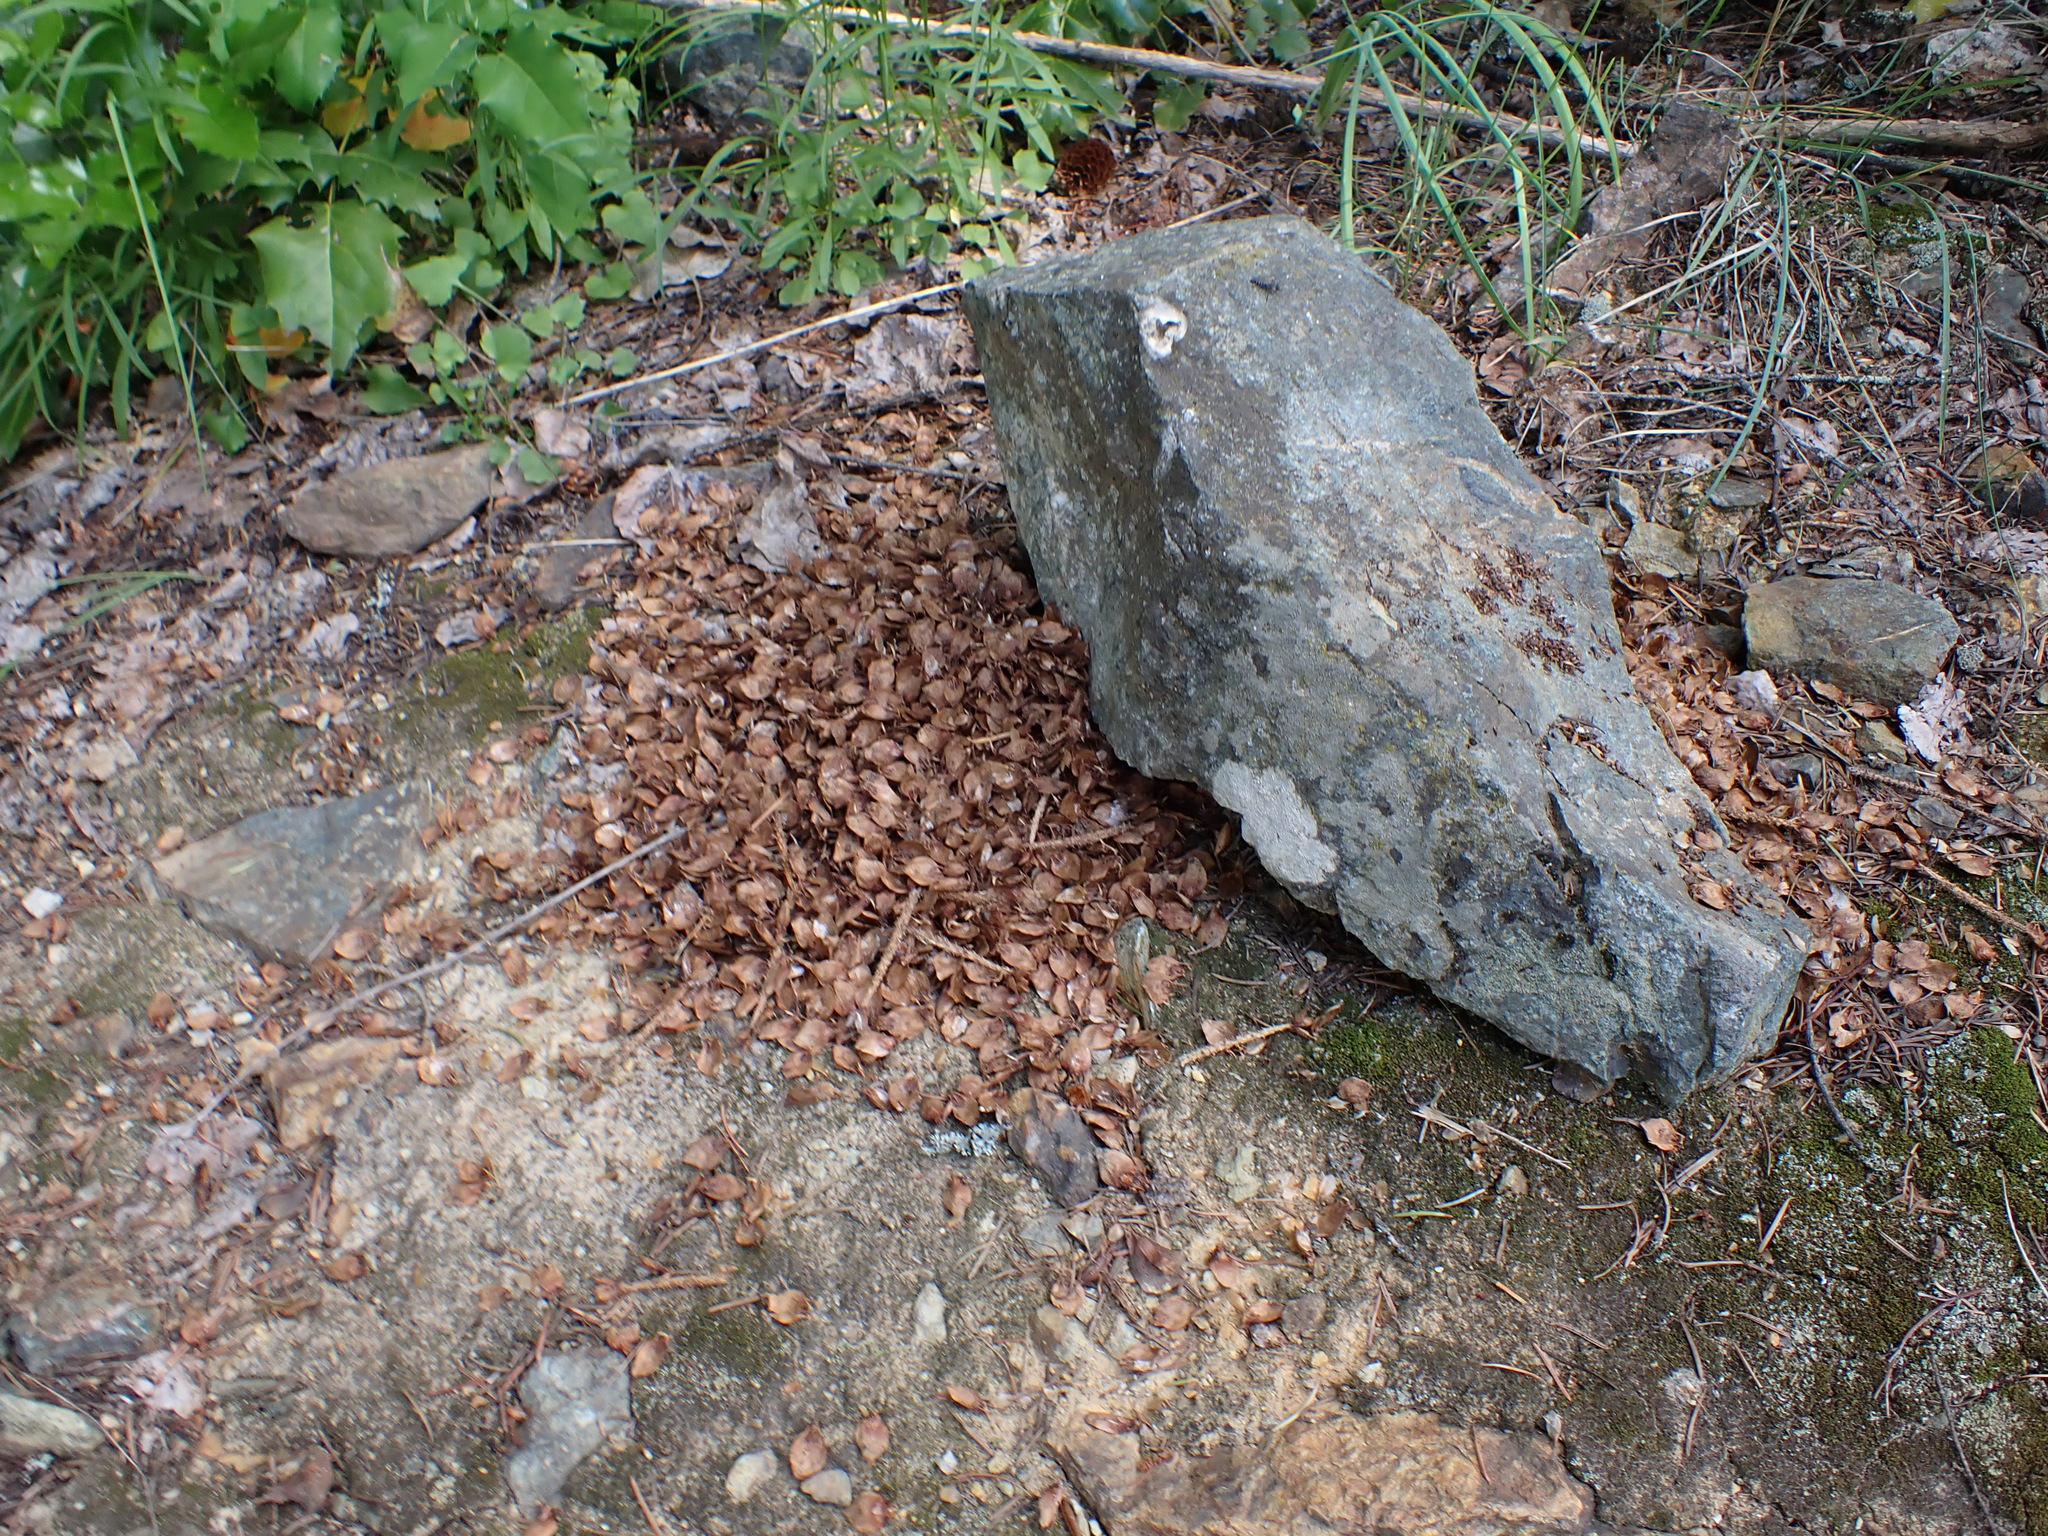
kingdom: Animalia
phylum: Chordata
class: Mammalia
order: Rodentia
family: Sciuridae
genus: Tamiasciurus
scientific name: Tamiasciurus hudsonicus
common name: Red squirrel
